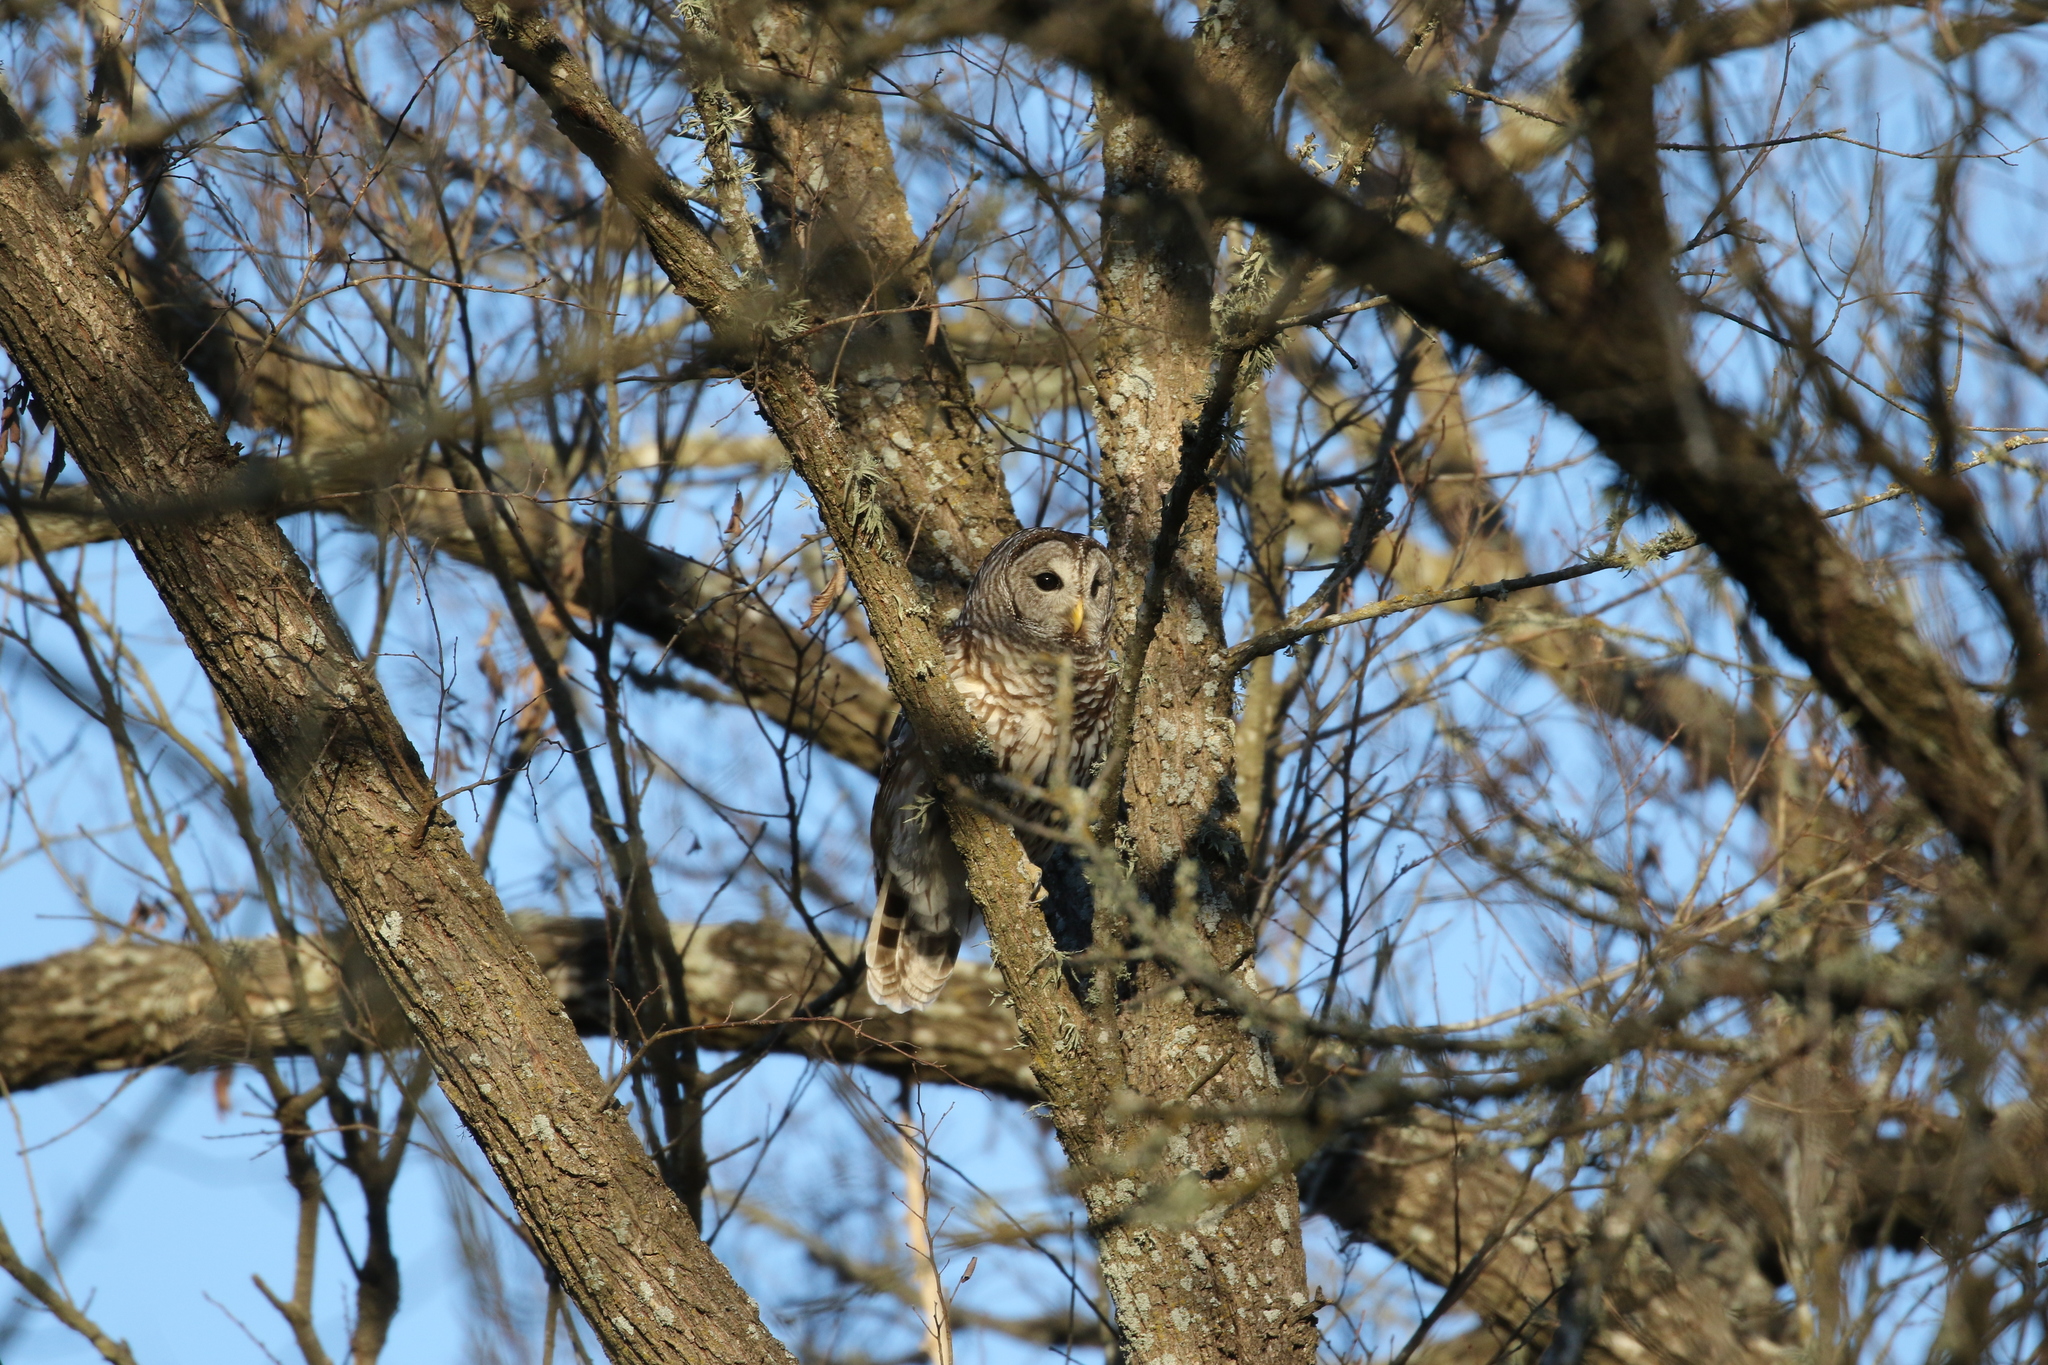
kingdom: Animalia
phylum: Chordata
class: Aves
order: Strigiformes
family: Strigidae
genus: Strix
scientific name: Strix varia
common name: Barred owl
